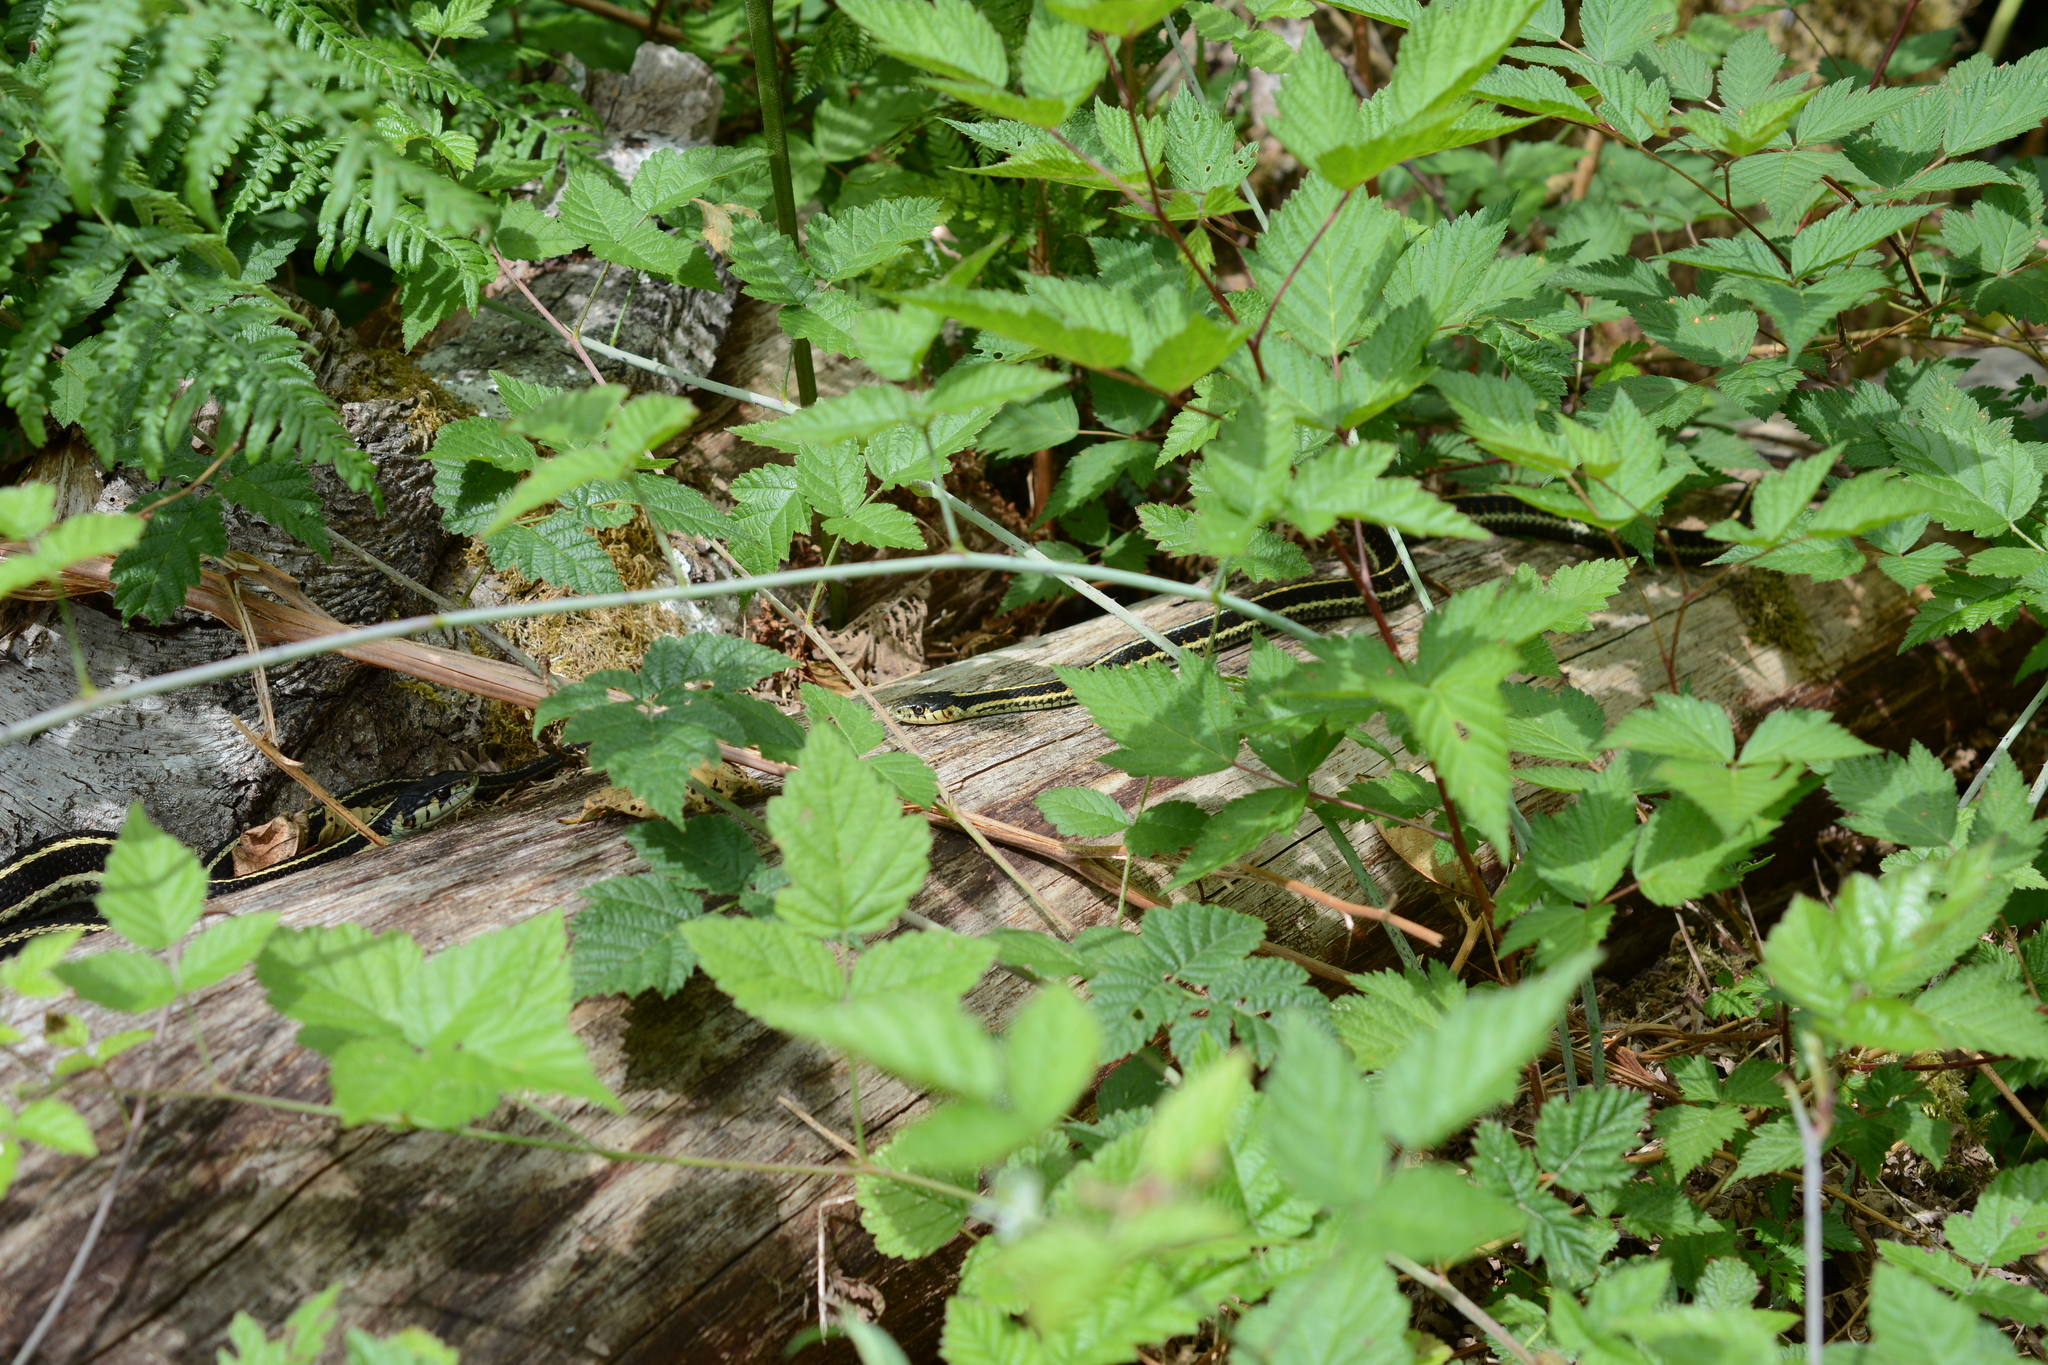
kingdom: Animalia
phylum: Chordata
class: Squamata
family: Colubridae
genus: Thamnophis
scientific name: Thamnophis sirtalis
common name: Common garter snake
